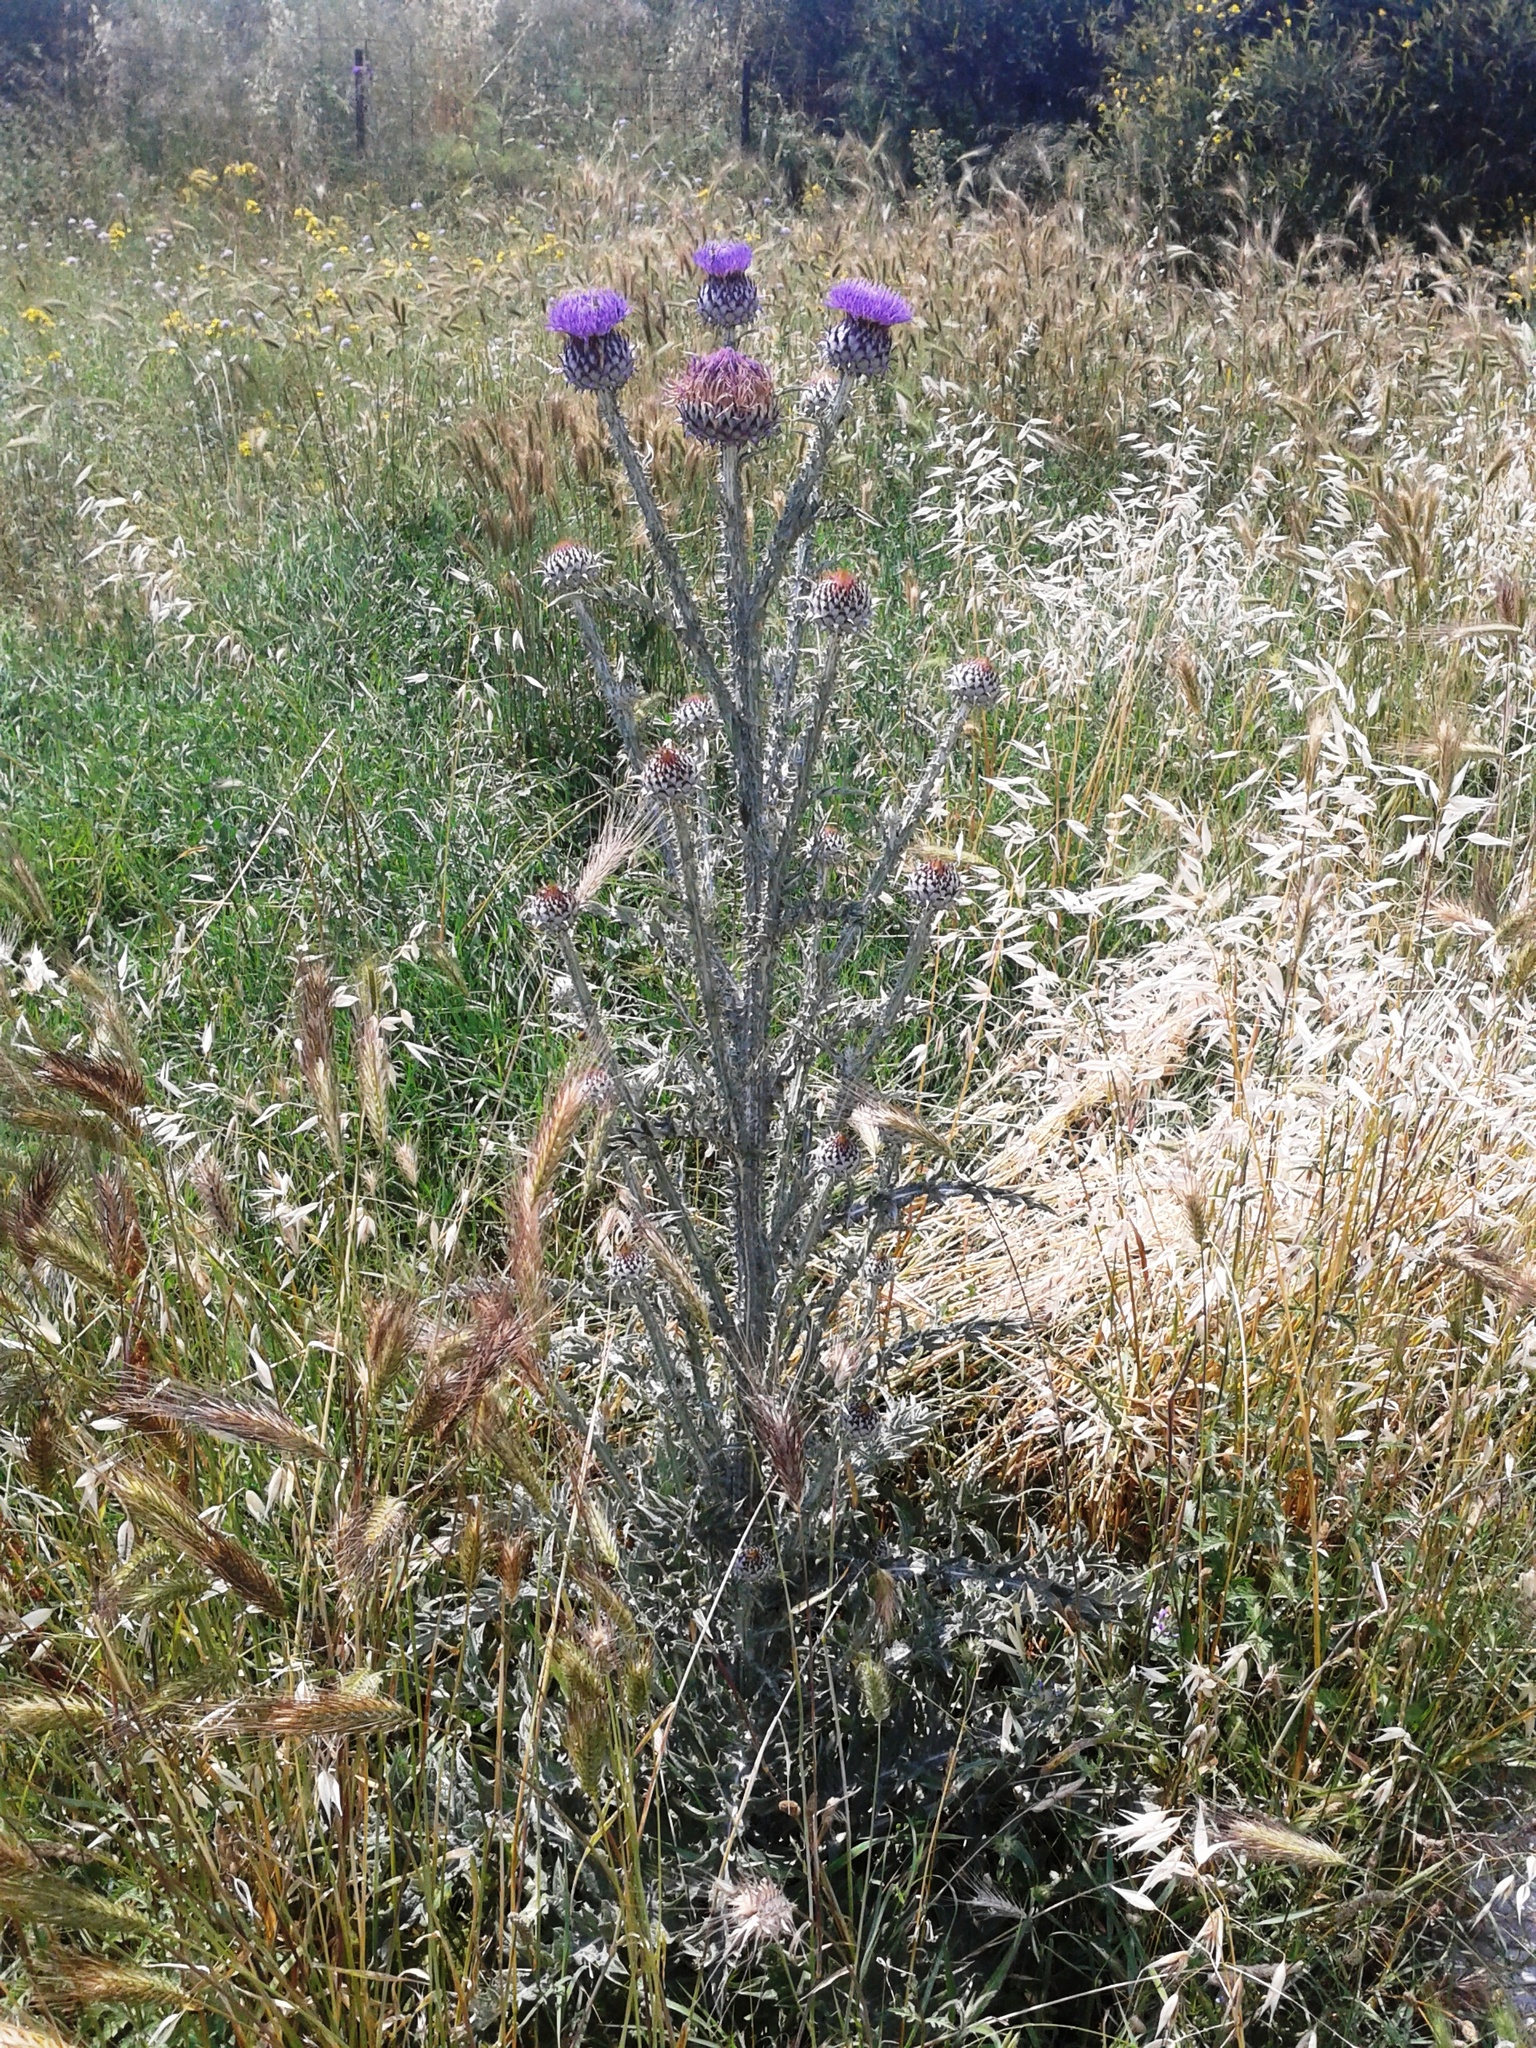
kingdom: Plantae
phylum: Tracheophyta
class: Magnoliopsida
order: Asterales
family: Asteraceae
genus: Onopordum
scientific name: Onopordum illyricum
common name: Illyrian thistle
